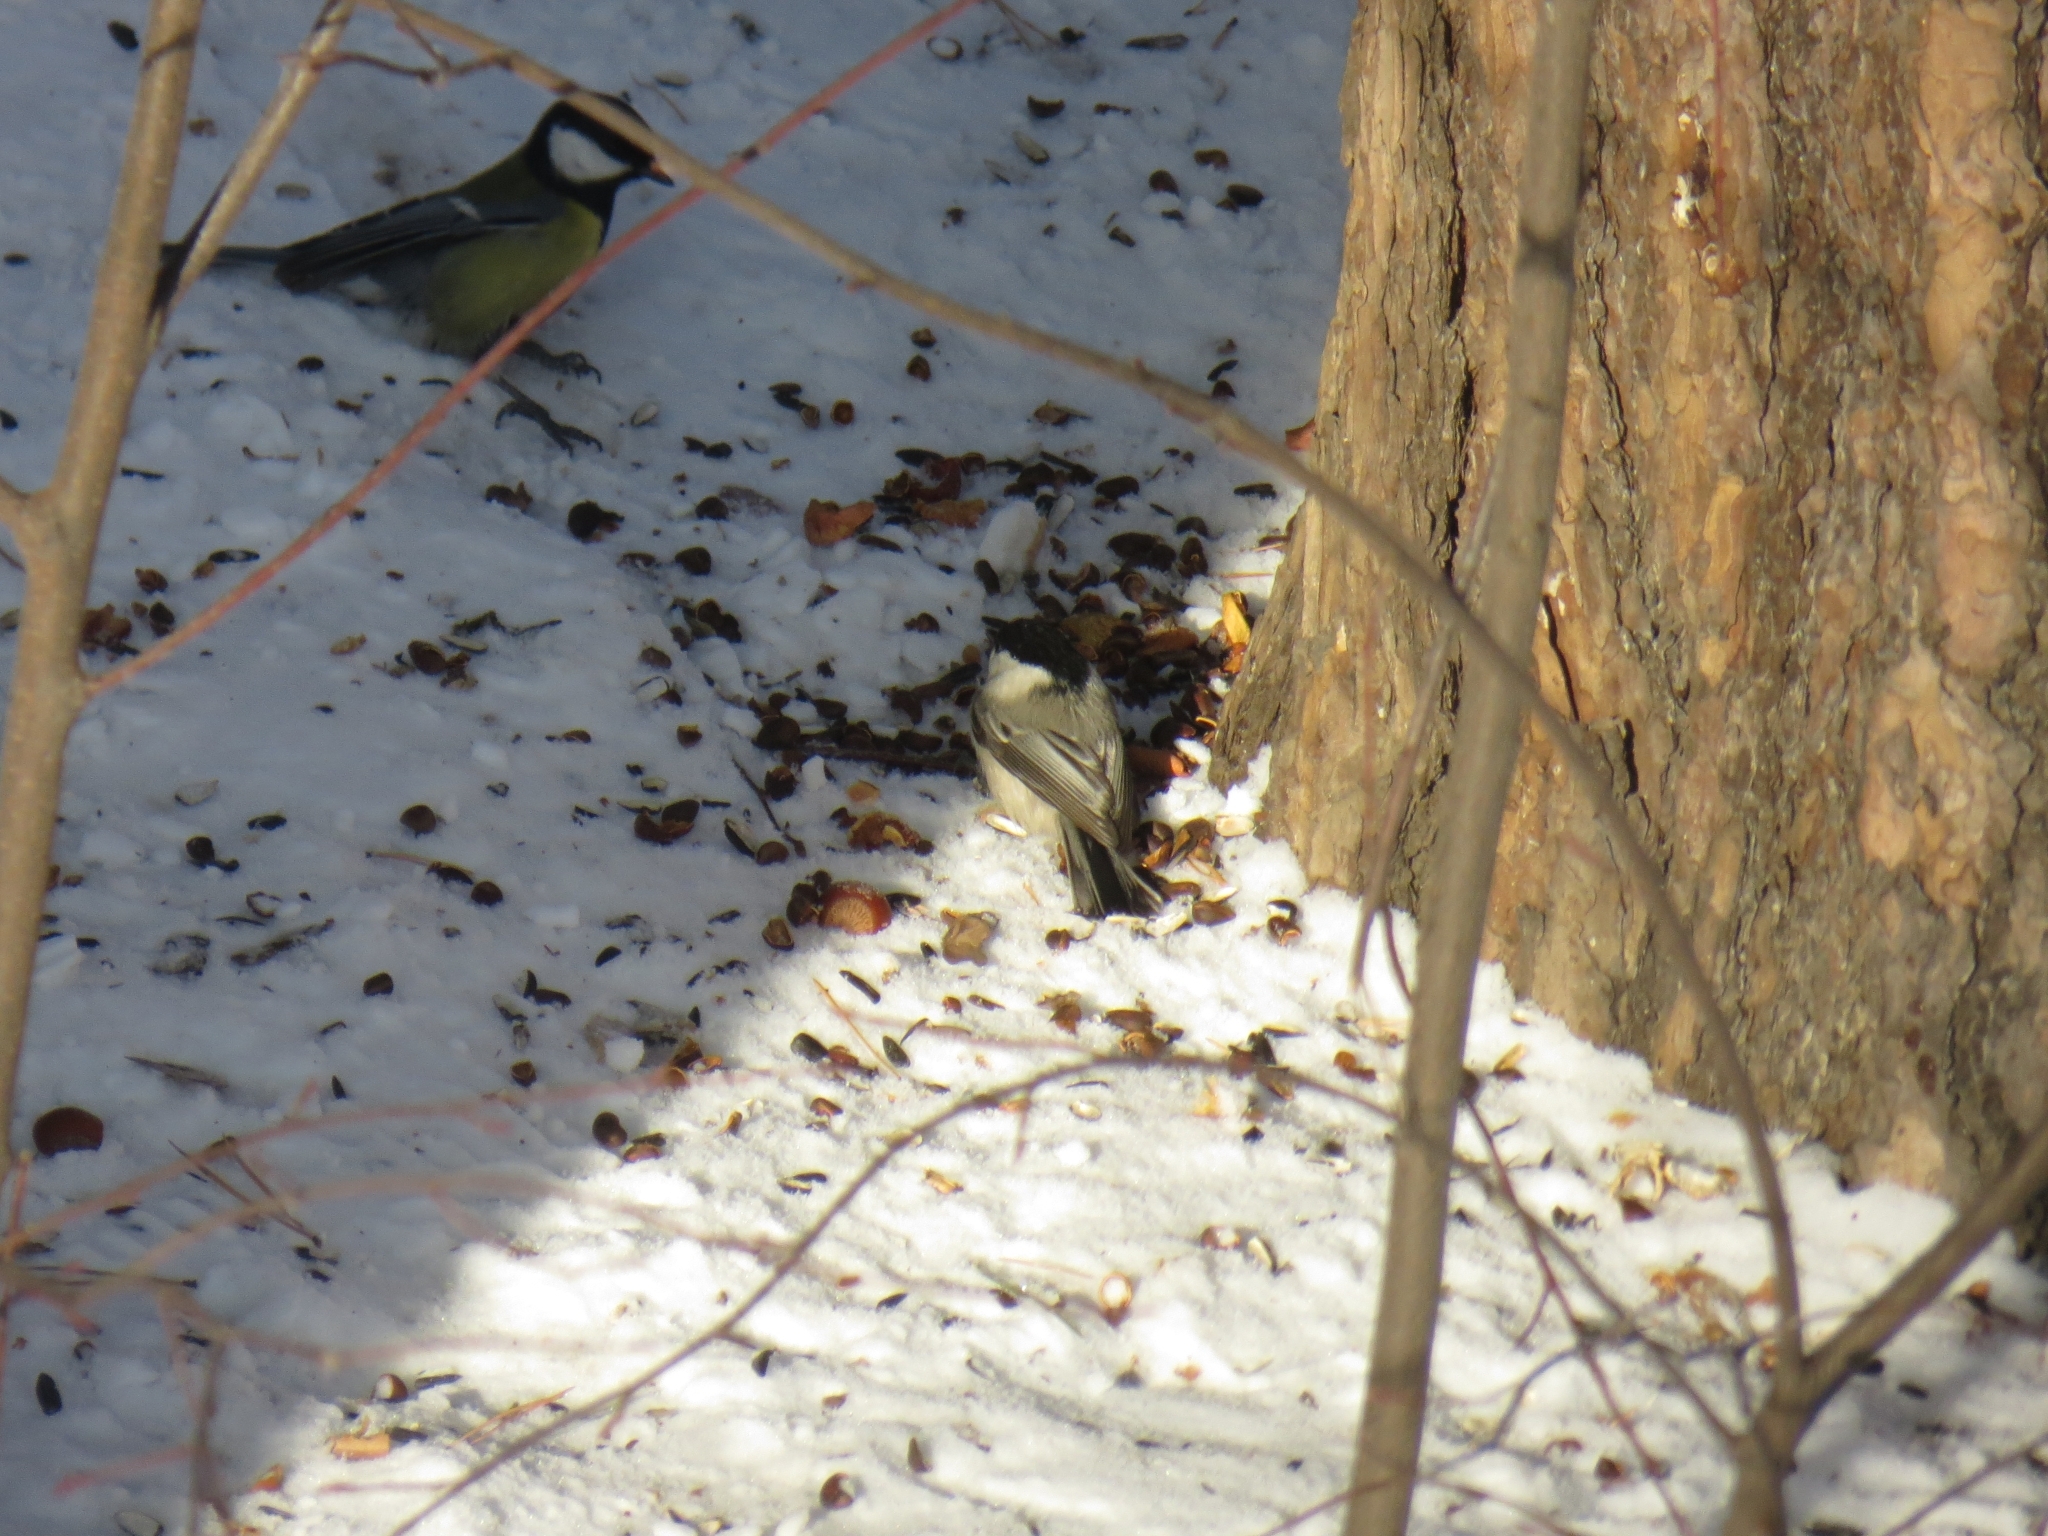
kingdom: Animalia
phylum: Chordata
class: Aves
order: Passeriformes
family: Paridae
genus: Poecile
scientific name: Poecile montanus
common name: Willow tit
